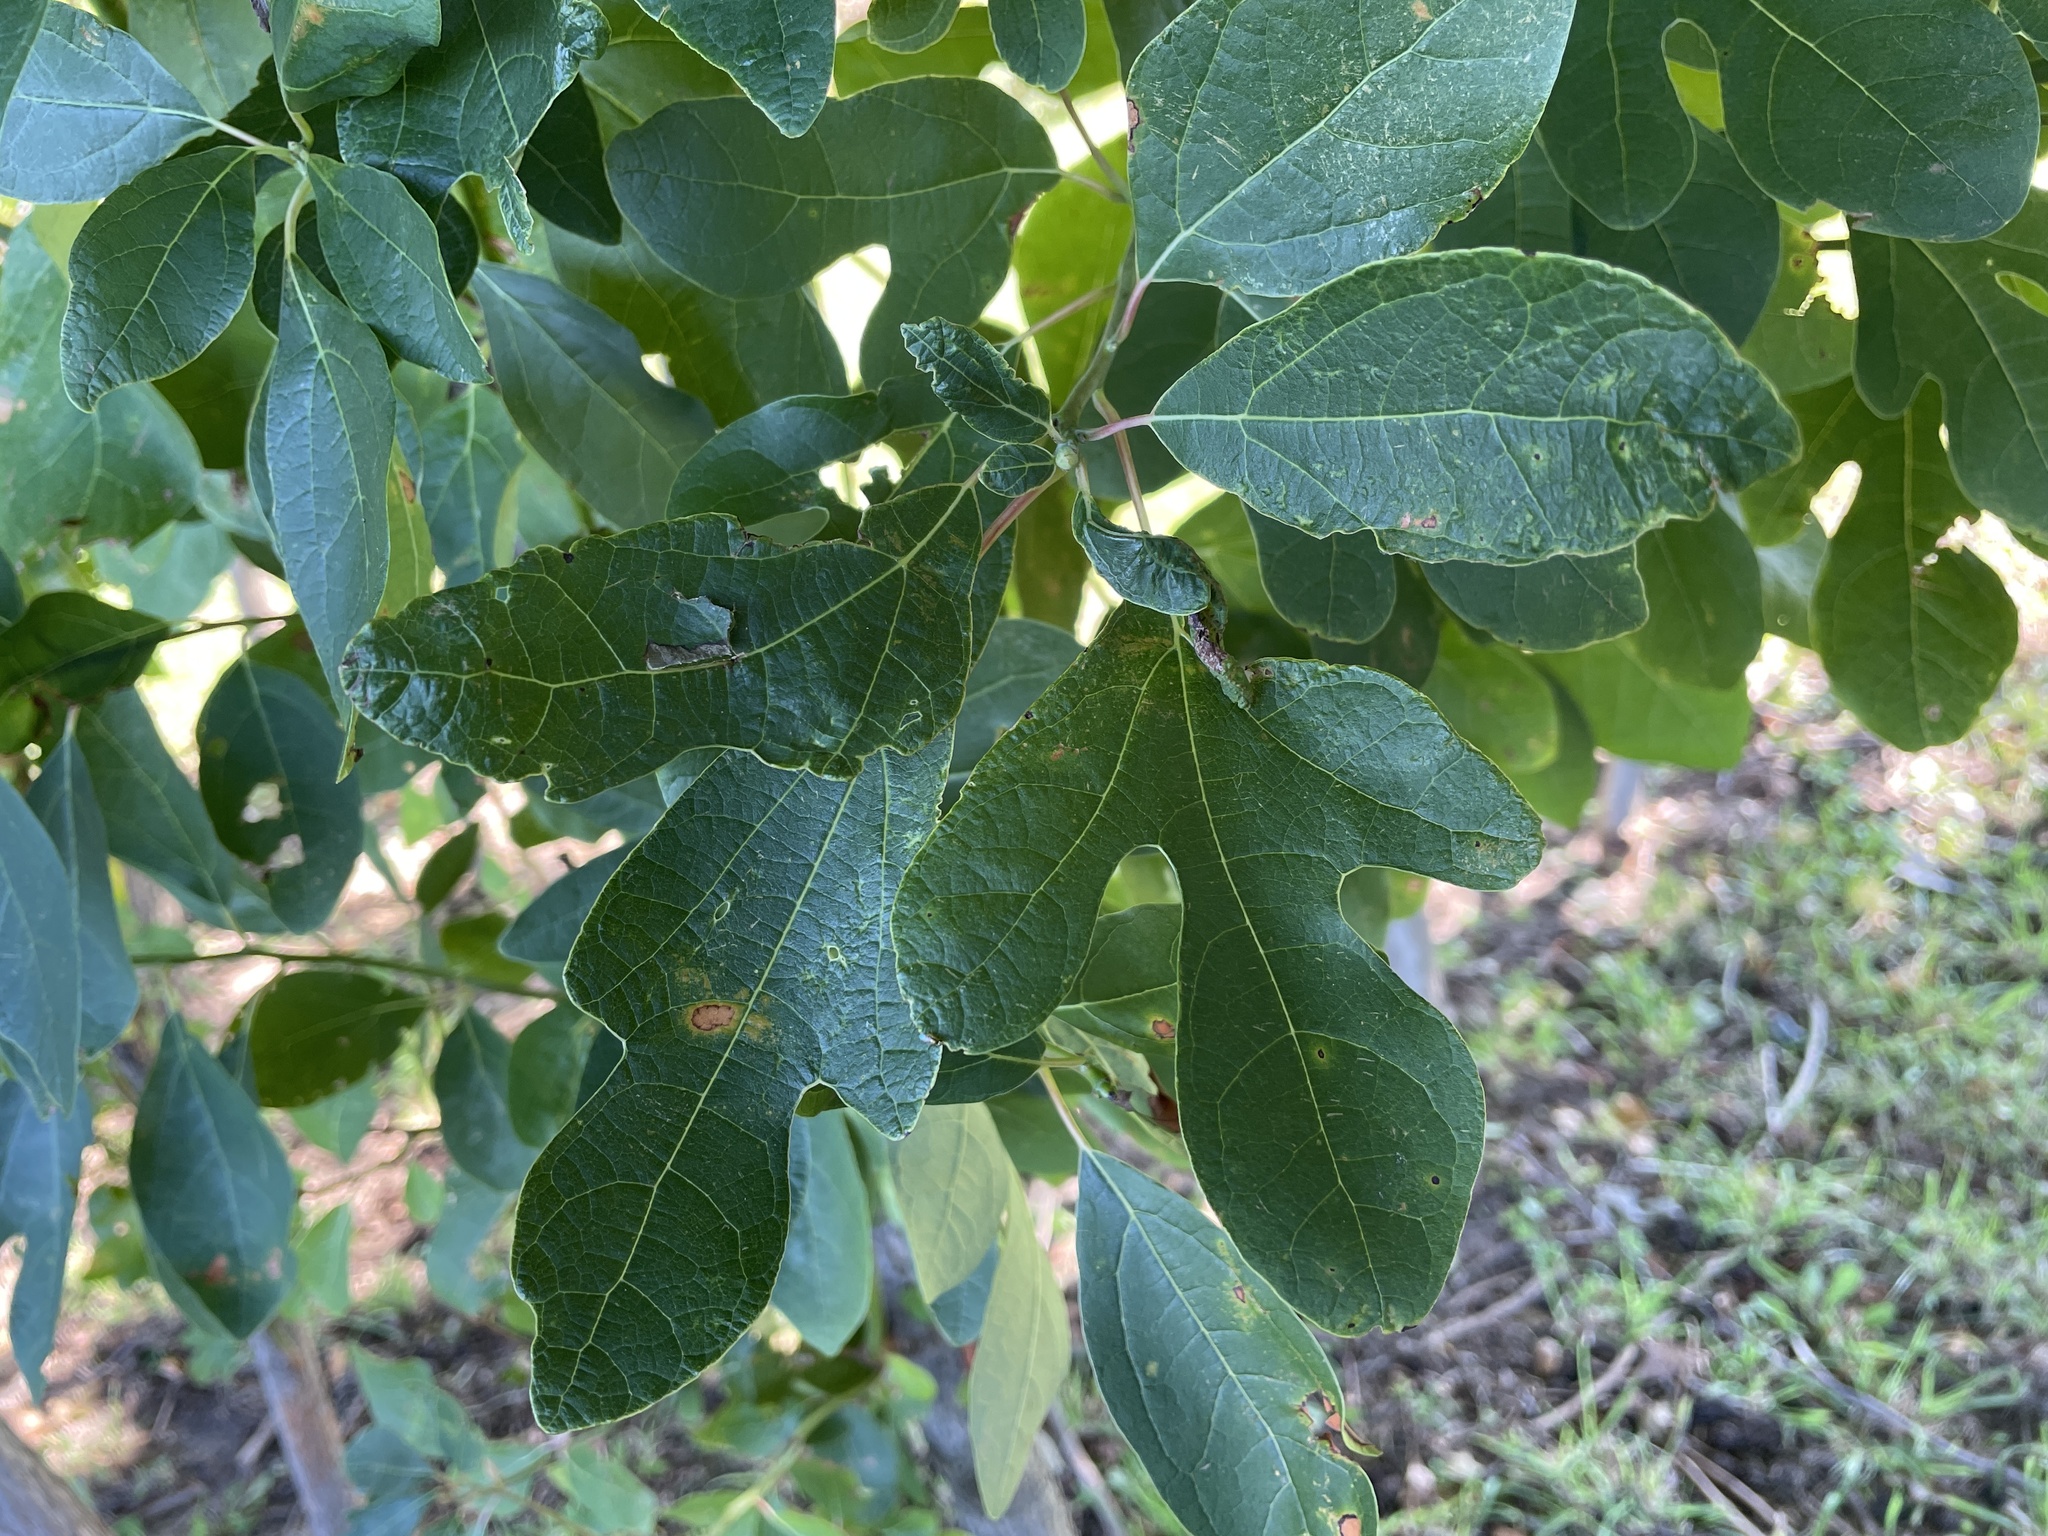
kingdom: Plantae
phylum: Tracheophyta
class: Magnoliopsida
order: Laurales
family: Lauraceae
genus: Sassafras
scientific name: Sassafras albidum
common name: Sassafras
